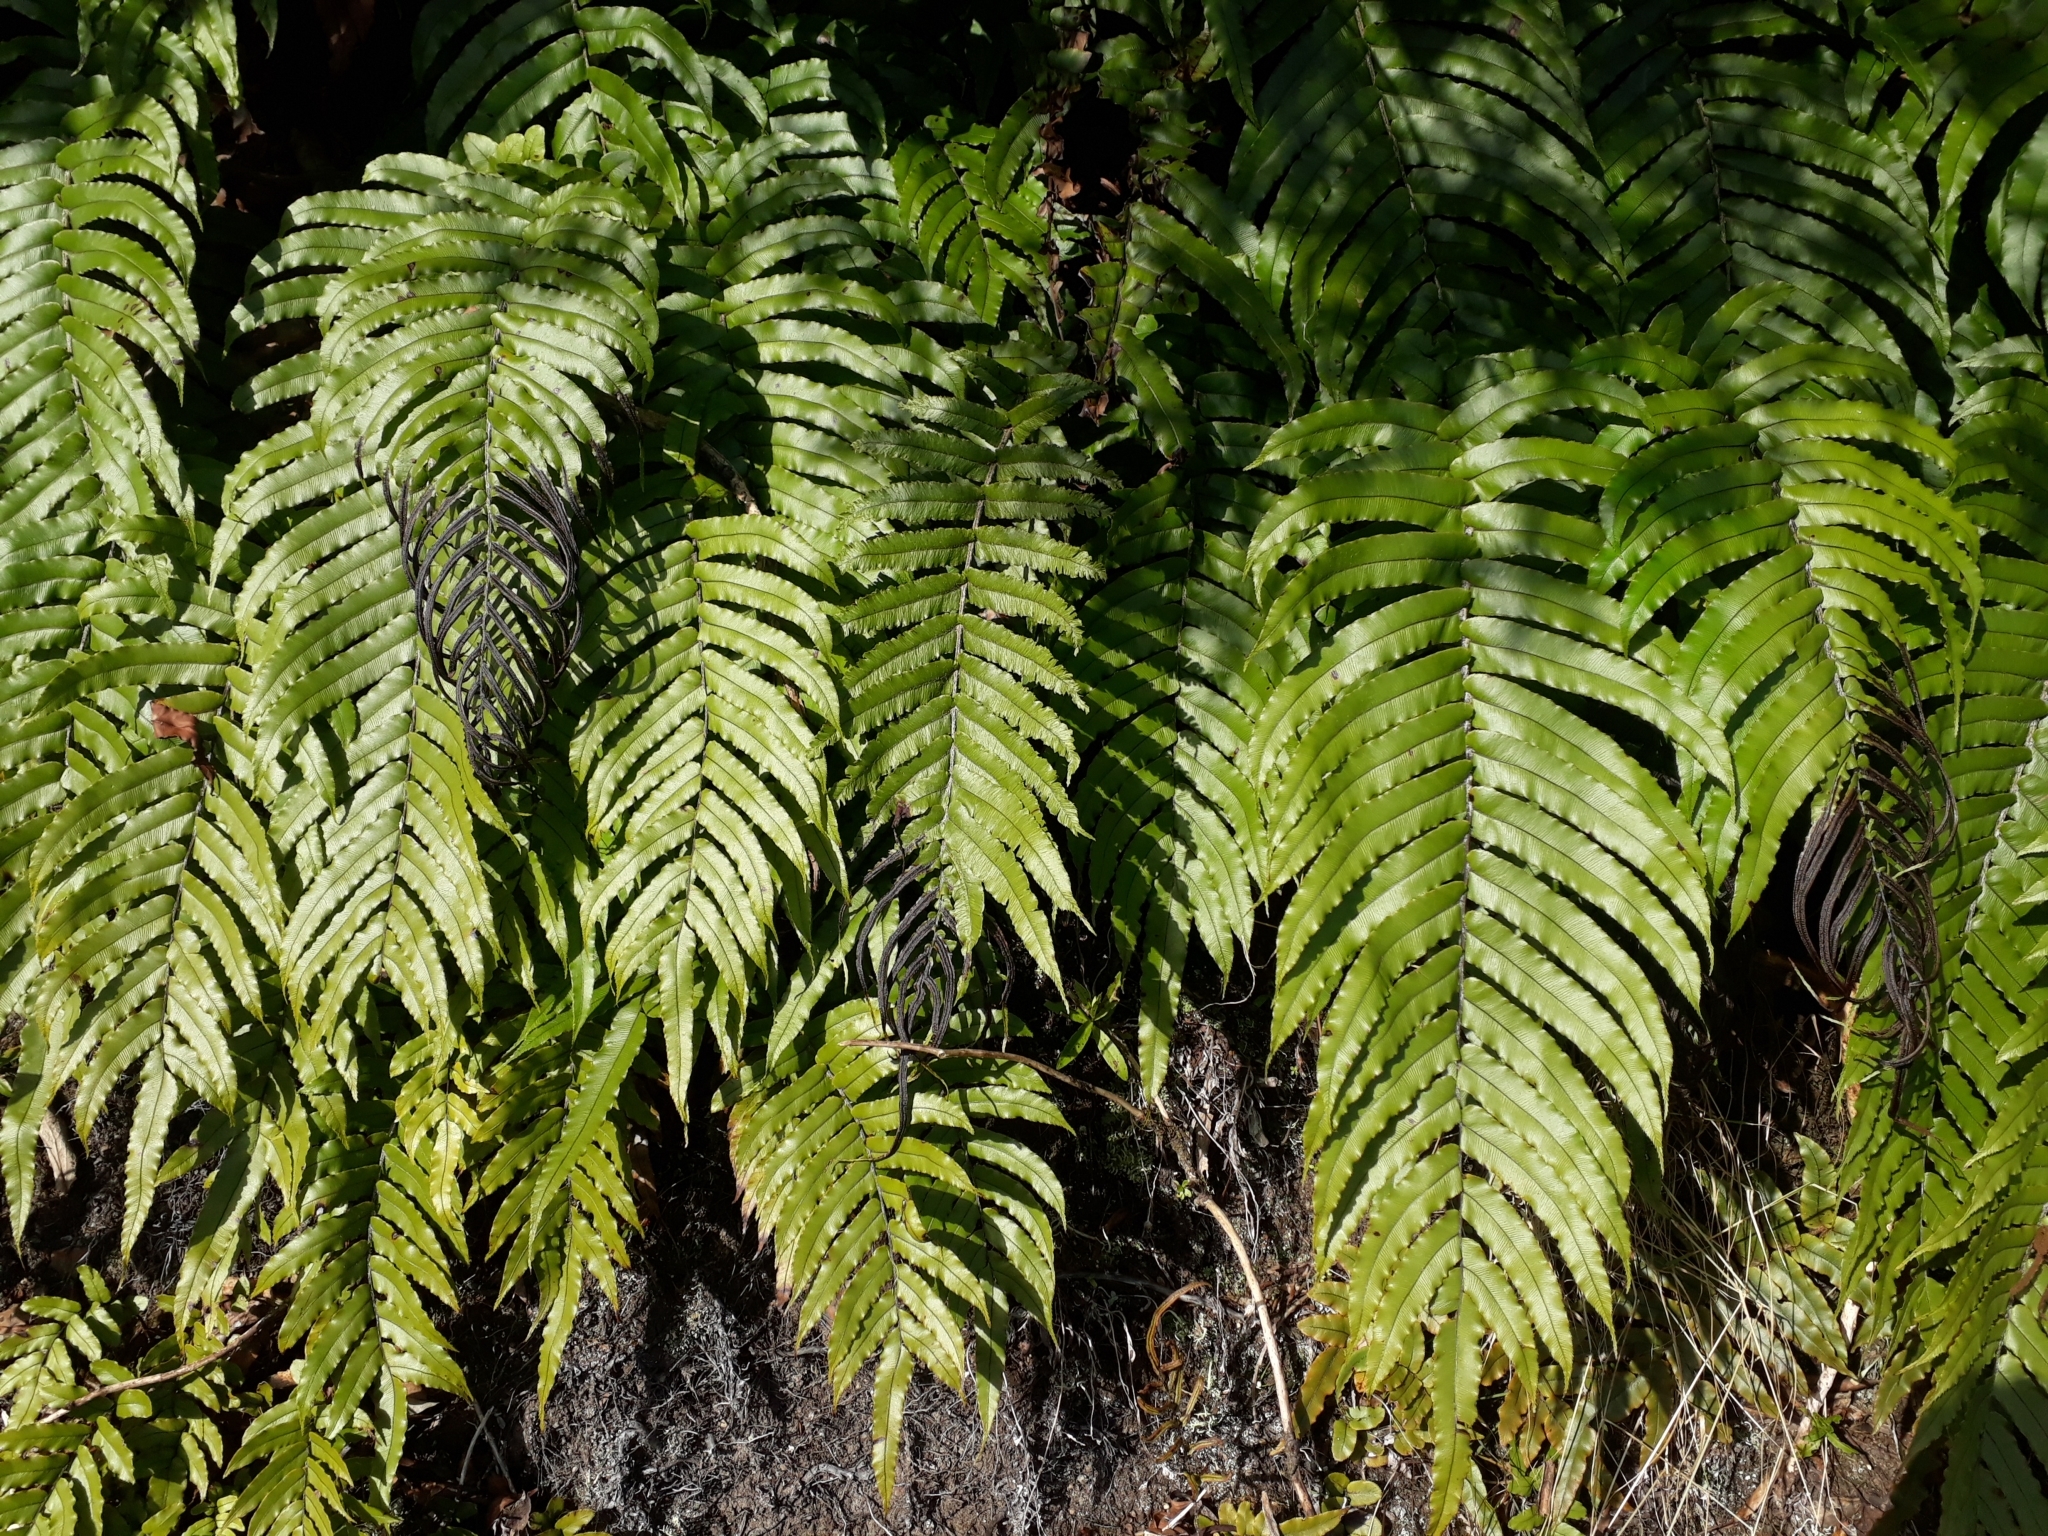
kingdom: Plantae
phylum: Tracheophyta
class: Polypodiopsida
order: Polypodiales
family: Blechnaceae
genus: Parablechnum
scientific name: Parablechnum novae-zelandiae
